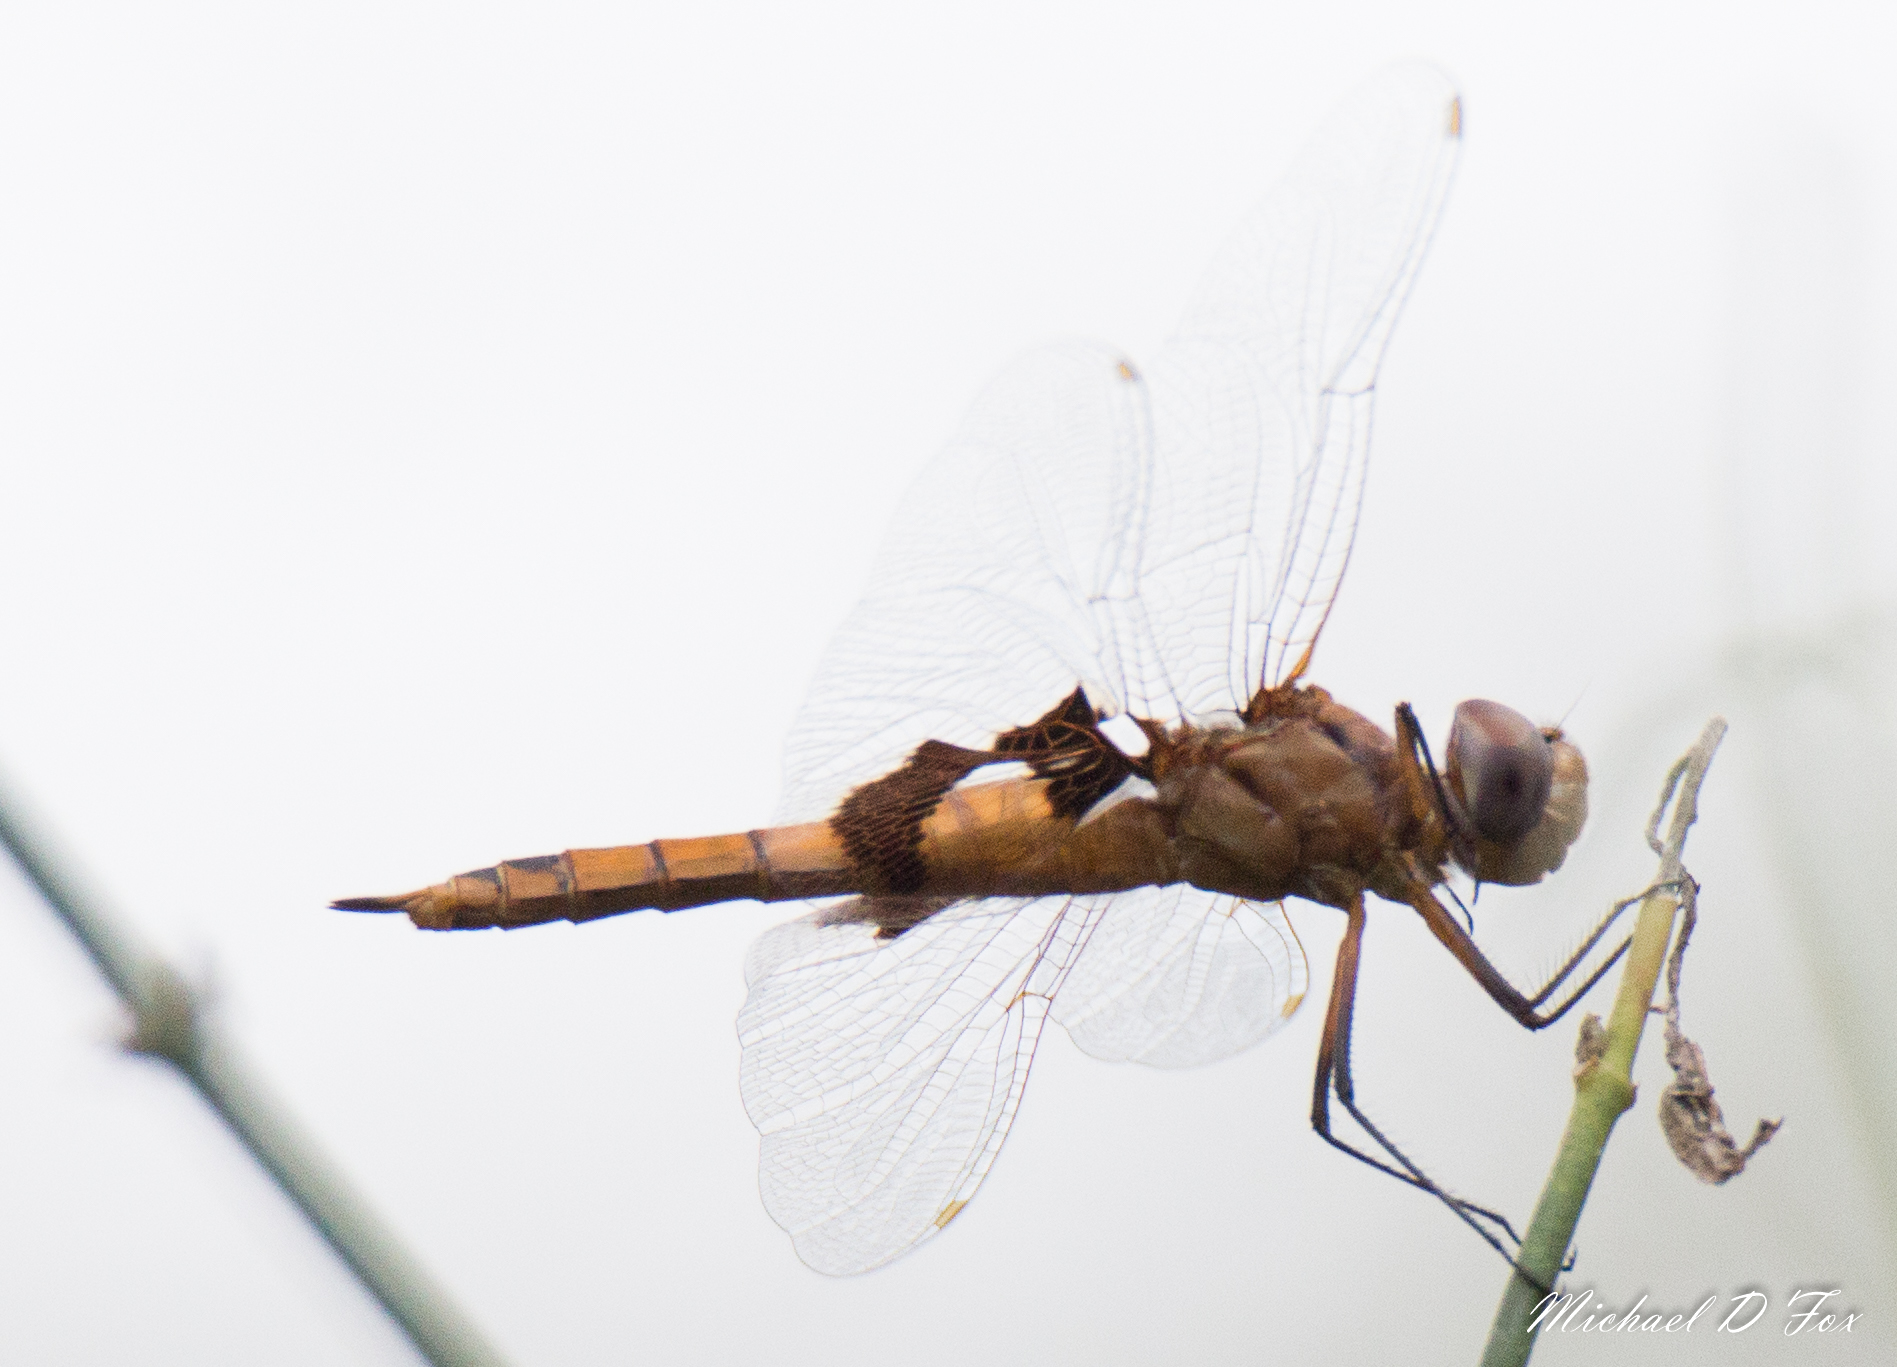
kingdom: Animalia
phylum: Arthropoda
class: Insecta
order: Odonata
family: Libellulidae
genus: Tramea
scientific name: Tramea onusta
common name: Red saddlebags
